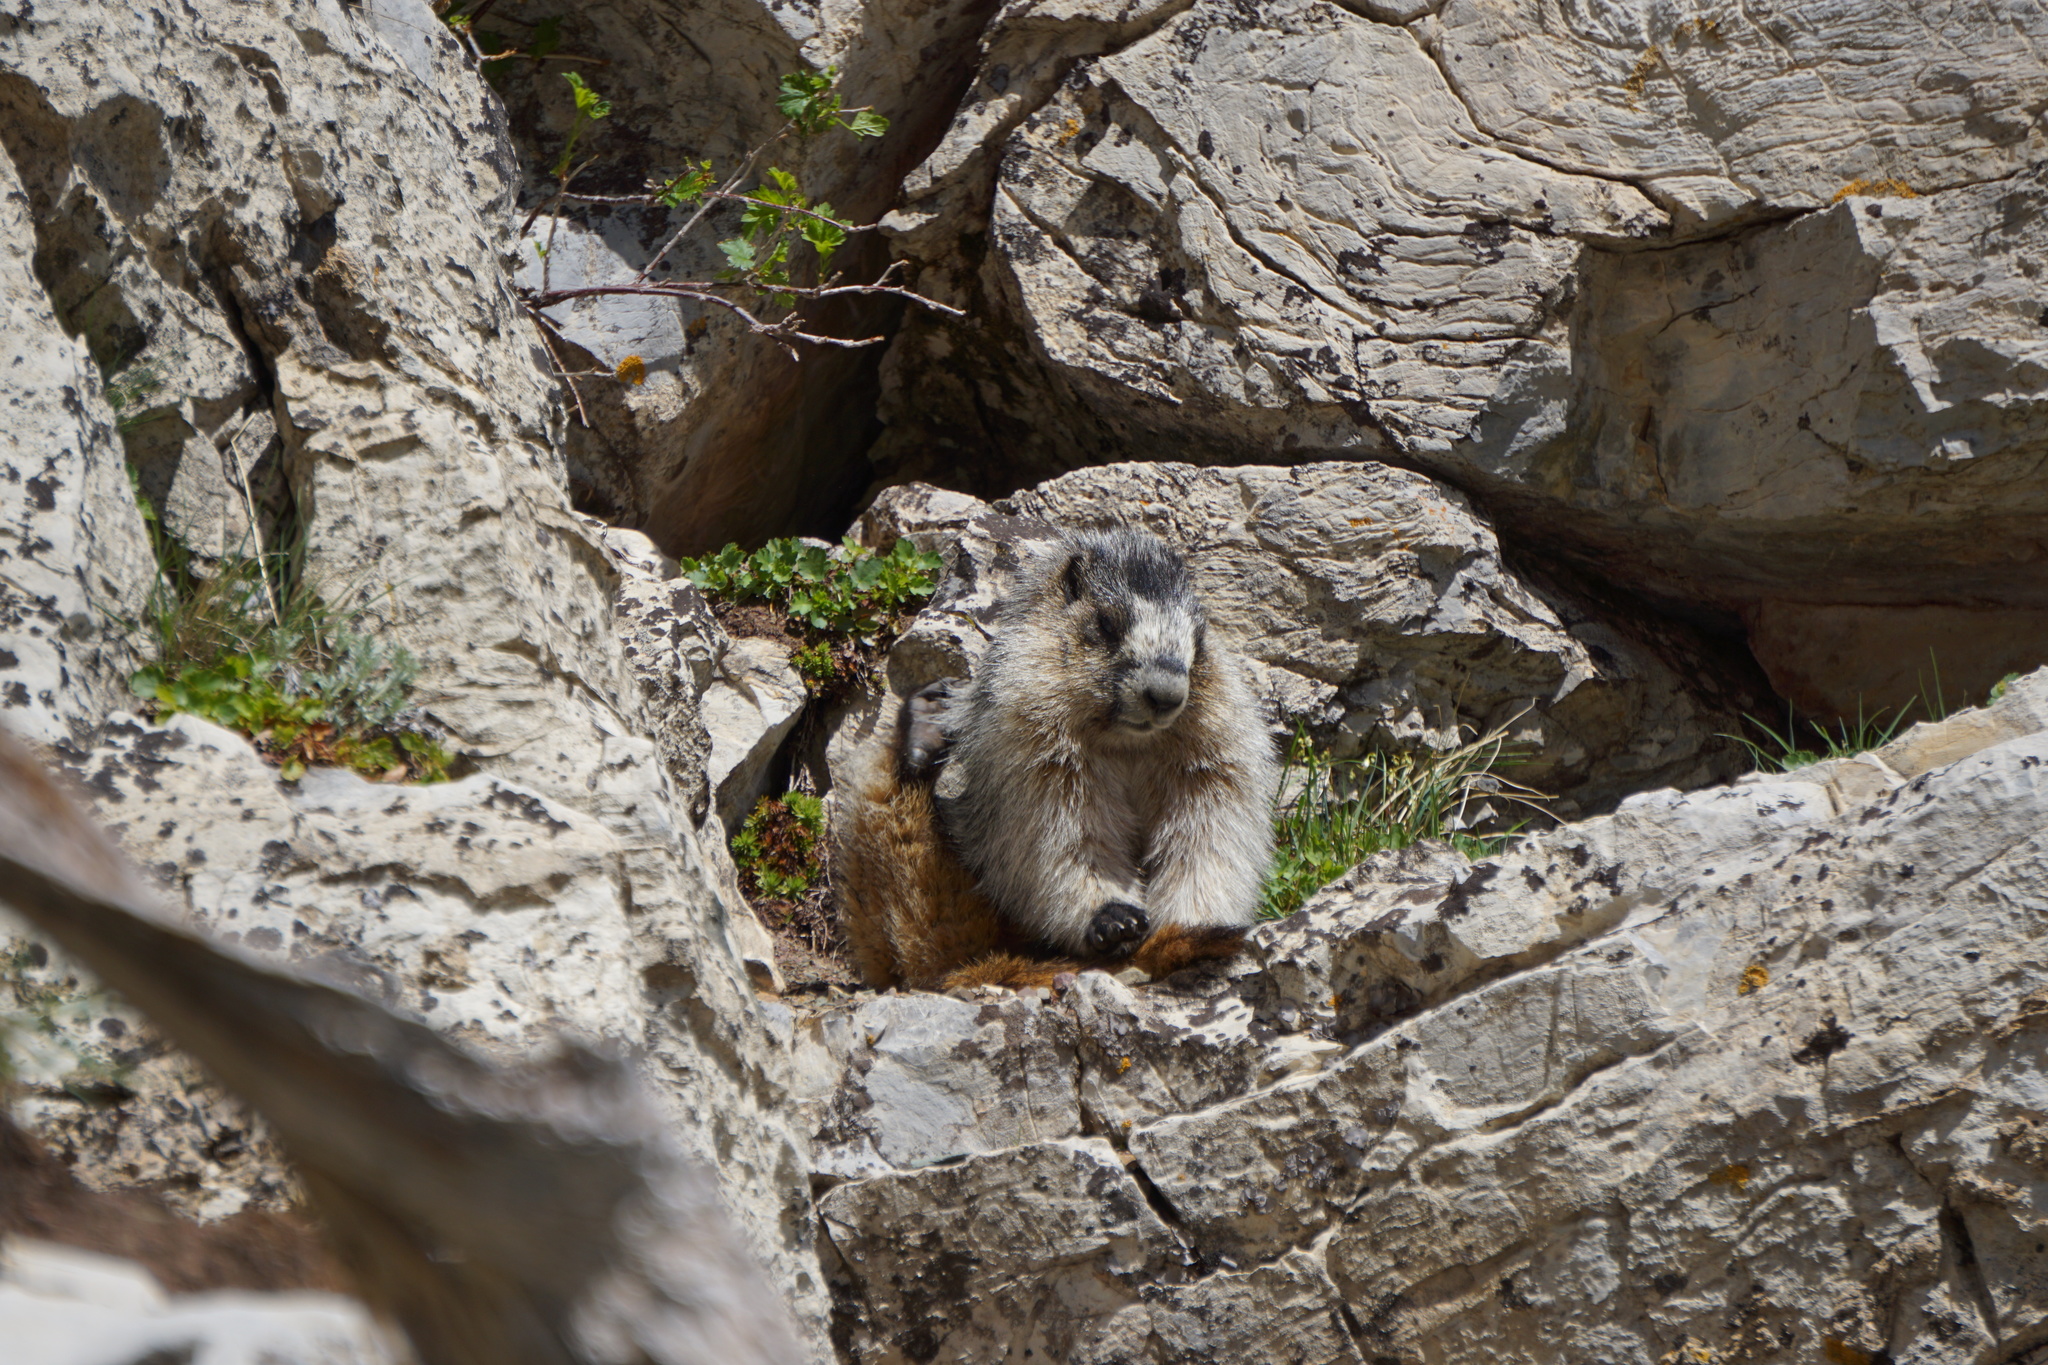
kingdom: Animalia
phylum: Chordata
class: Mammalia
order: Rodentia
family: Sciuridae
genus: Marmota
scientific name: Marmota caligata
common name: Hoary marmot
